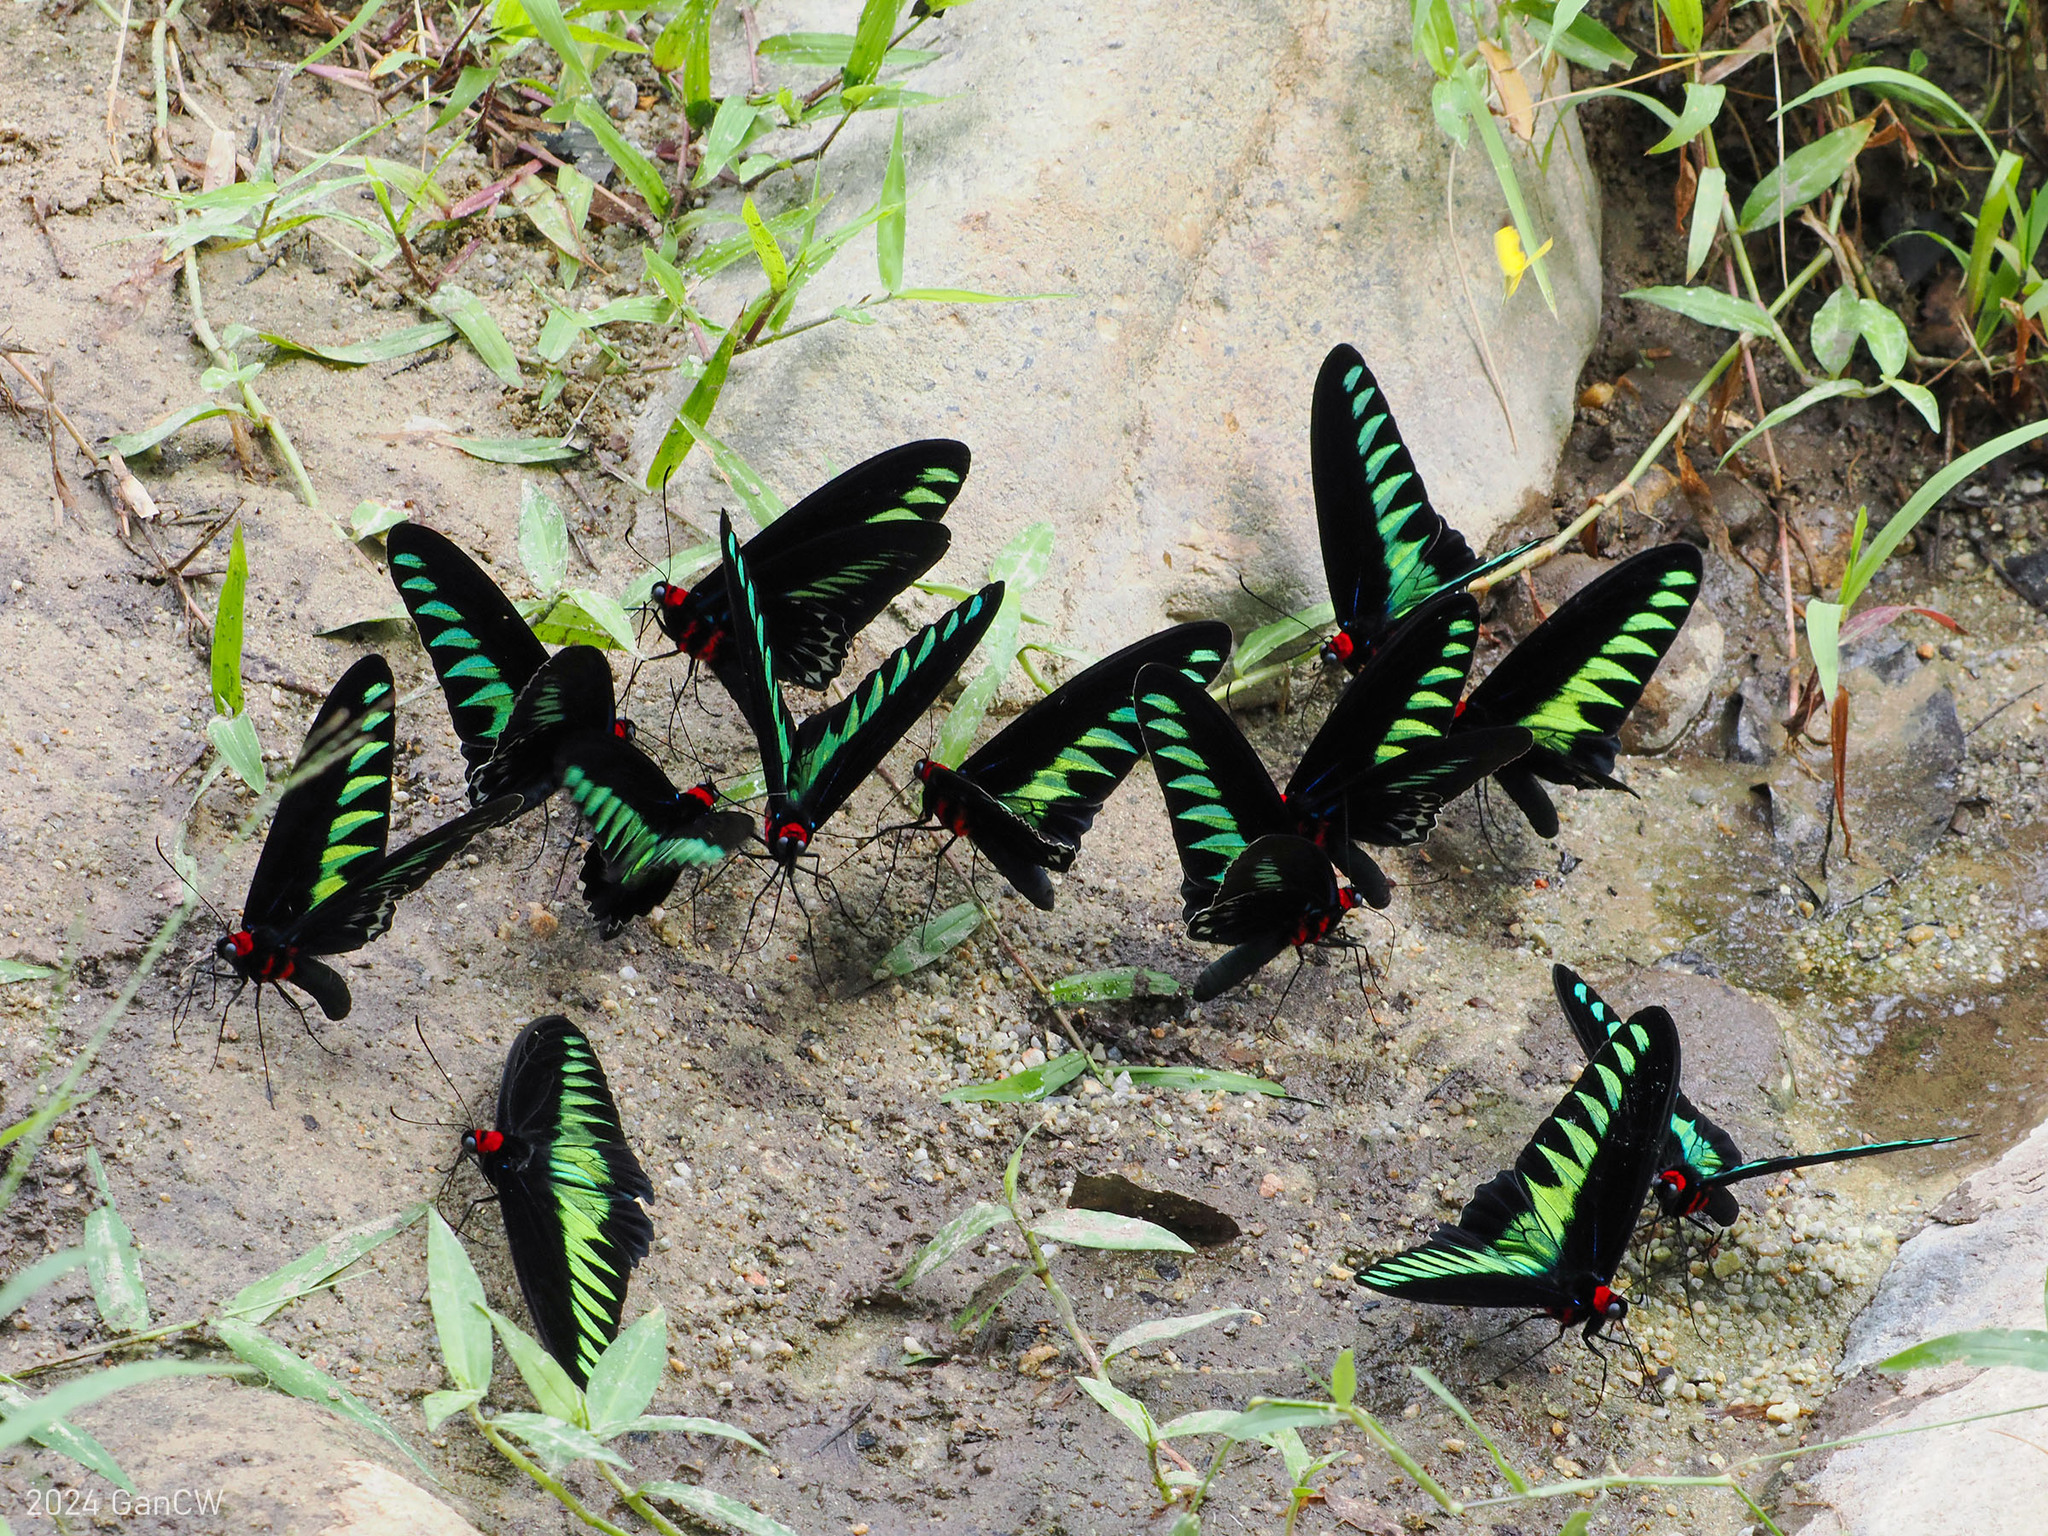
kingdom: Animalia
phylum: Arthropoda
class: Insecta
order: Lepidoptera
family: Papilionidae
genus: Trogonoptera
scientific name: Trogonoptera brookiana
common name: Raja brooke's birdwing
